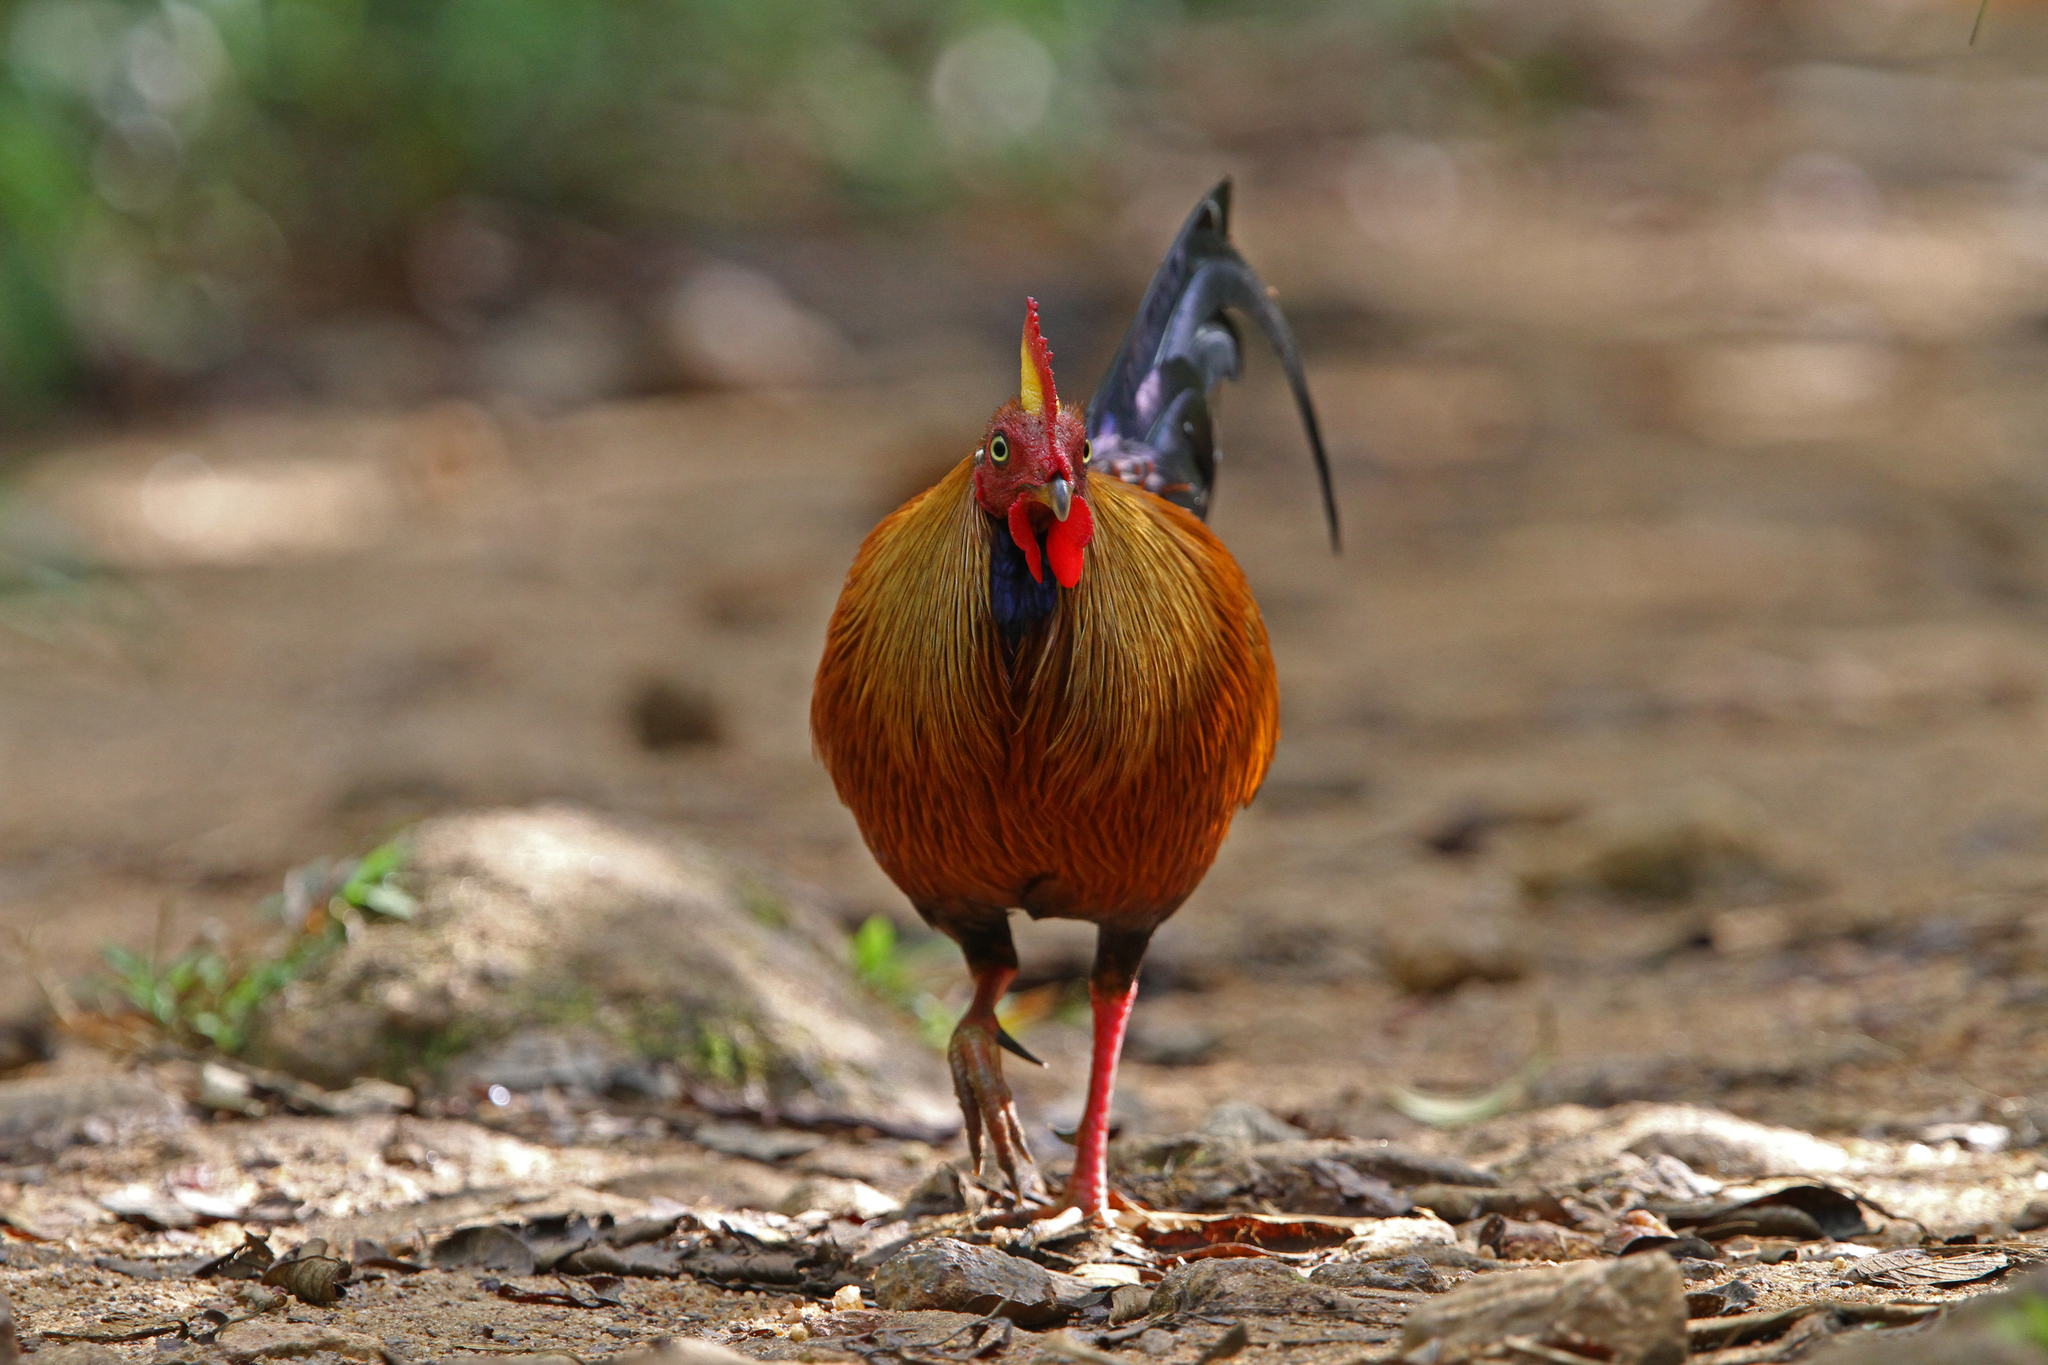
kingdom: Animalia
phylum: Chordata
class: Aves
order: Galliformes
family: Phasianidae
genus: Gallus
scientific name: Gallus lafayettii
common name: Sri lanka junglefowl
